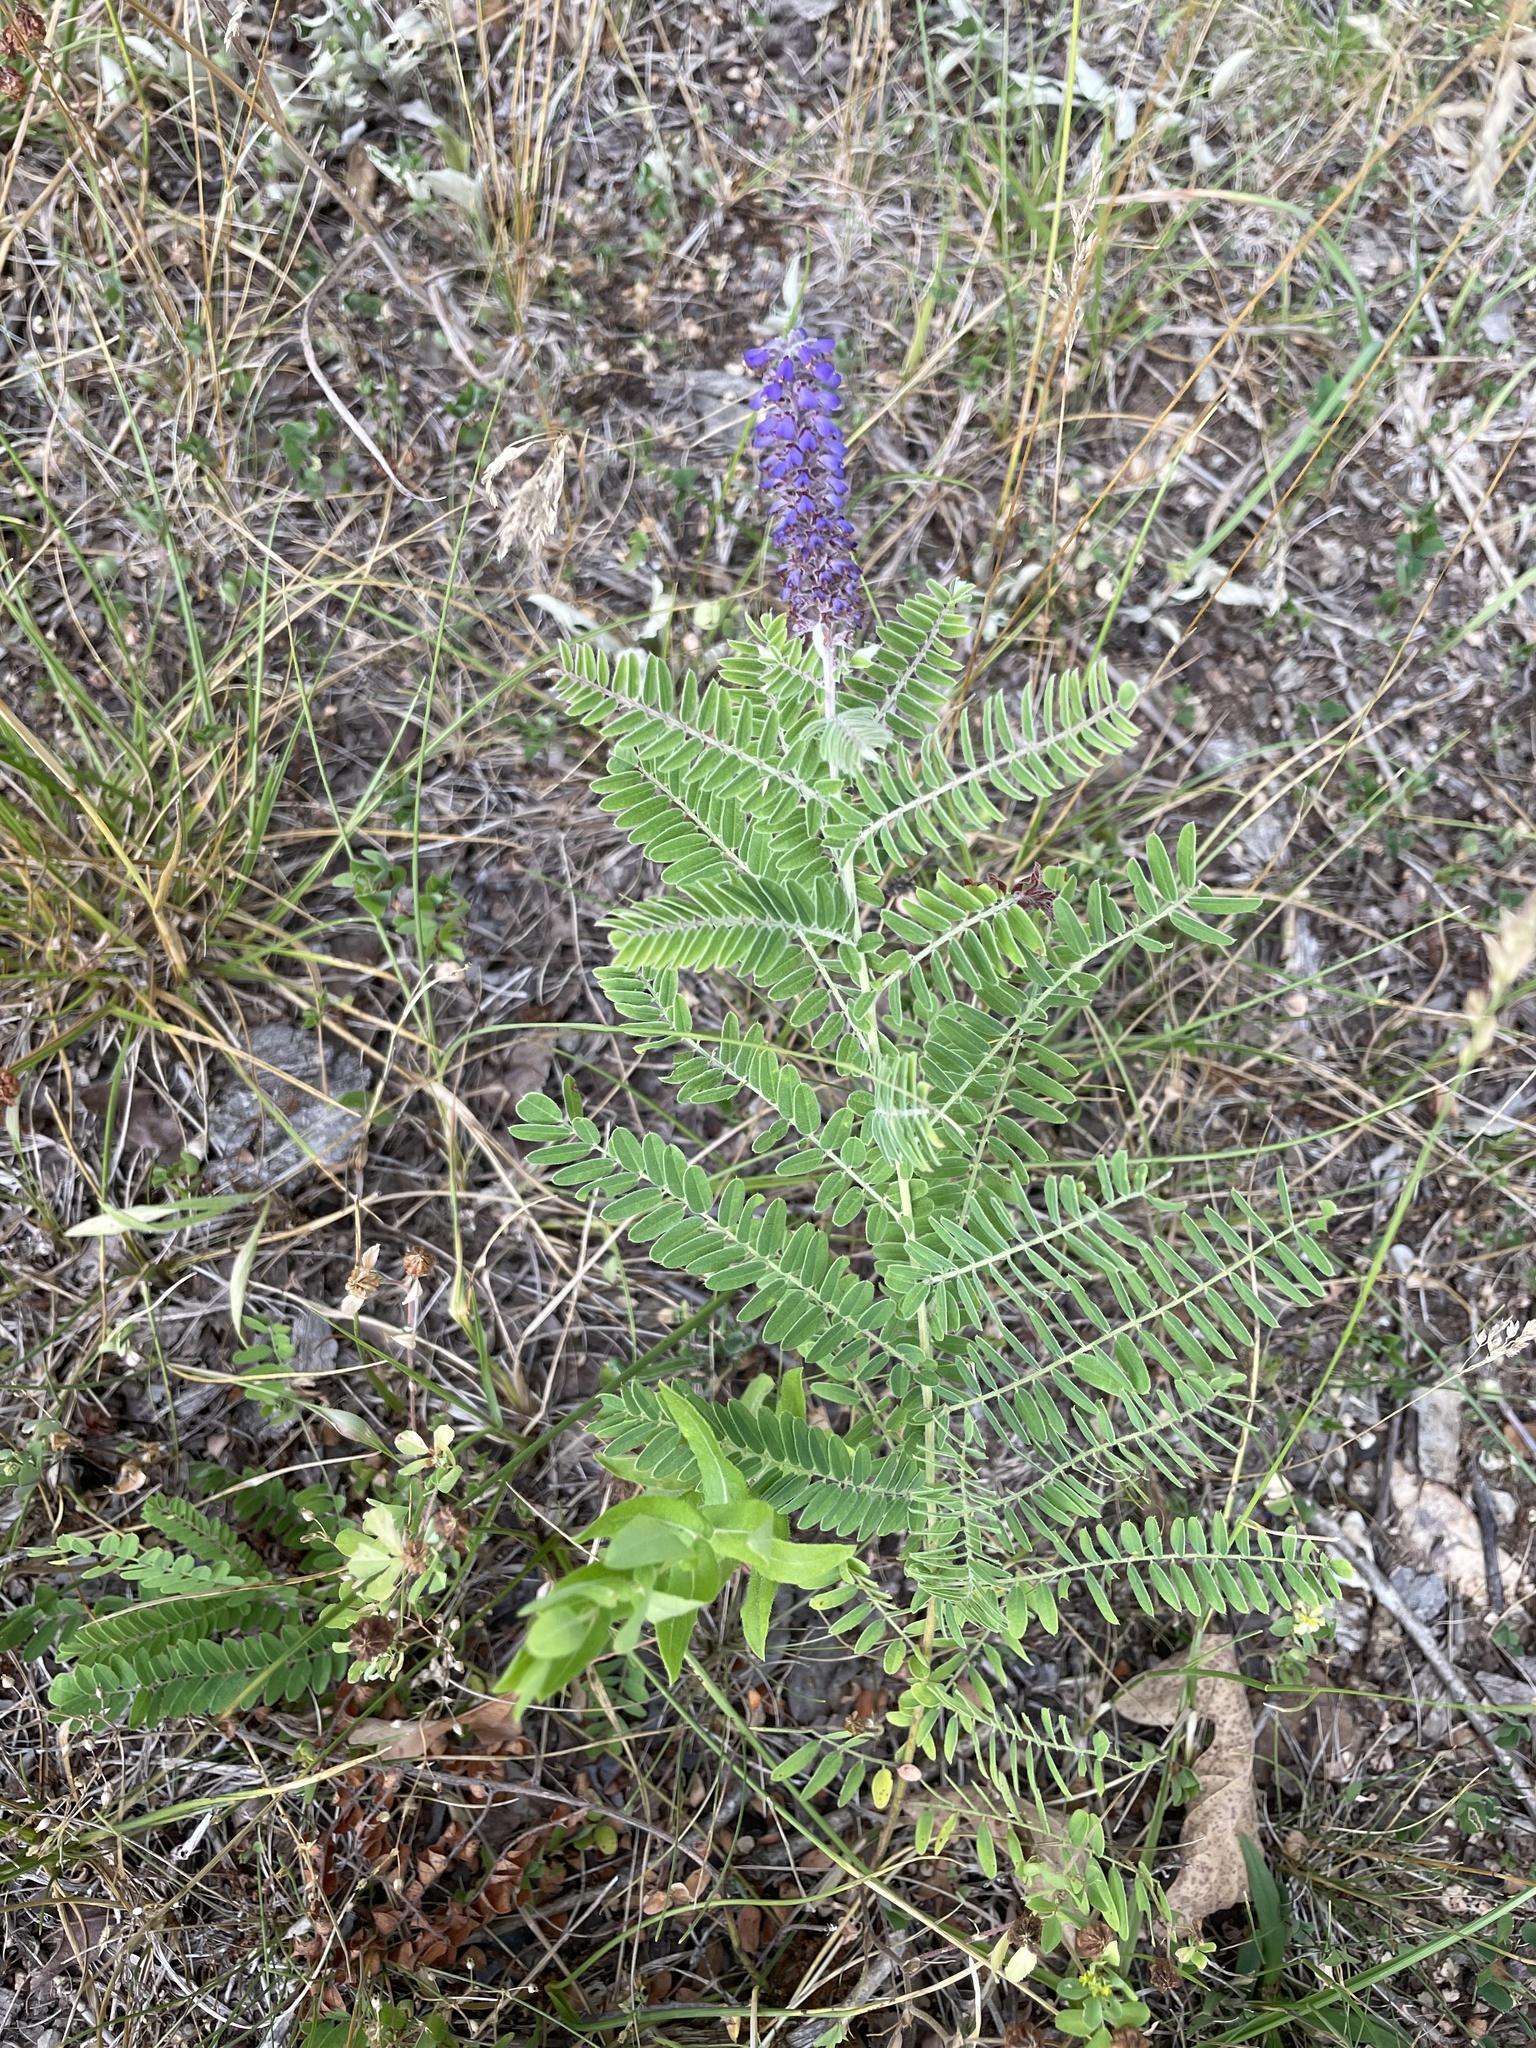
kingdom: Plantae
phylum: Tracheophyta
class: Magnoliopsida
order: Fabales
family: Fabaceae
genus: Amorpha
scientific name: Amorpha canescens
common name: Leadplant
